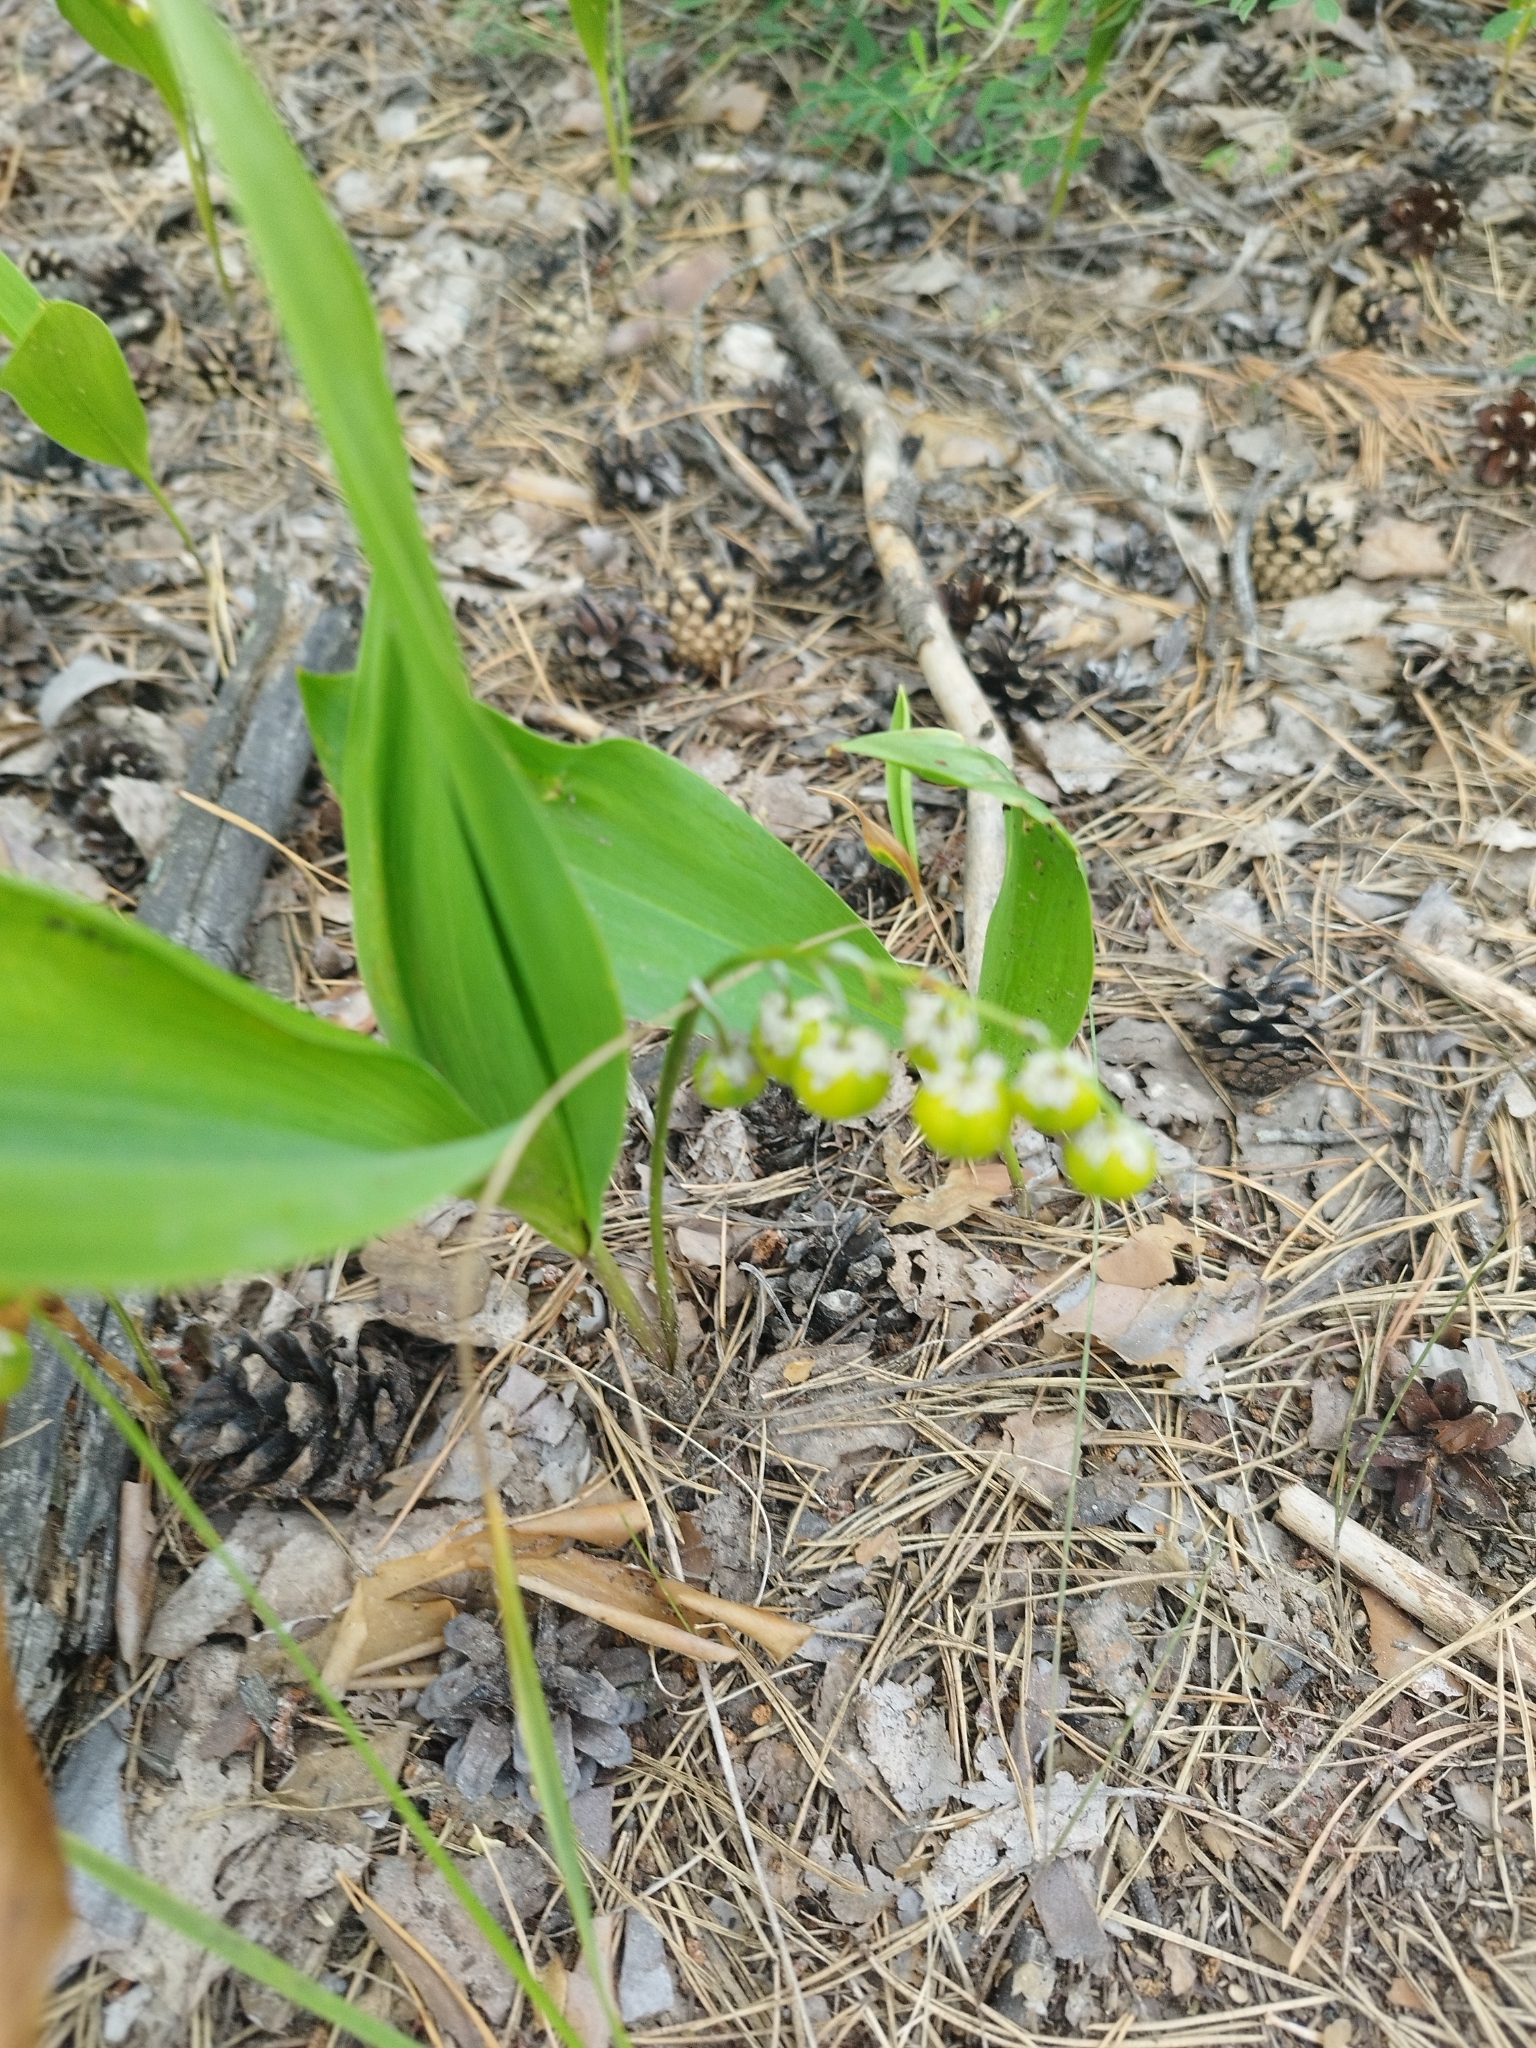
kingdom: Plantae
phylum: Tracheophyta
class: Liliopsida
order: Asparagales
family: Asparagaceae
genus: Convallaria
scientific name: Convallaria majalis
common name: Lily-of-the-valley
